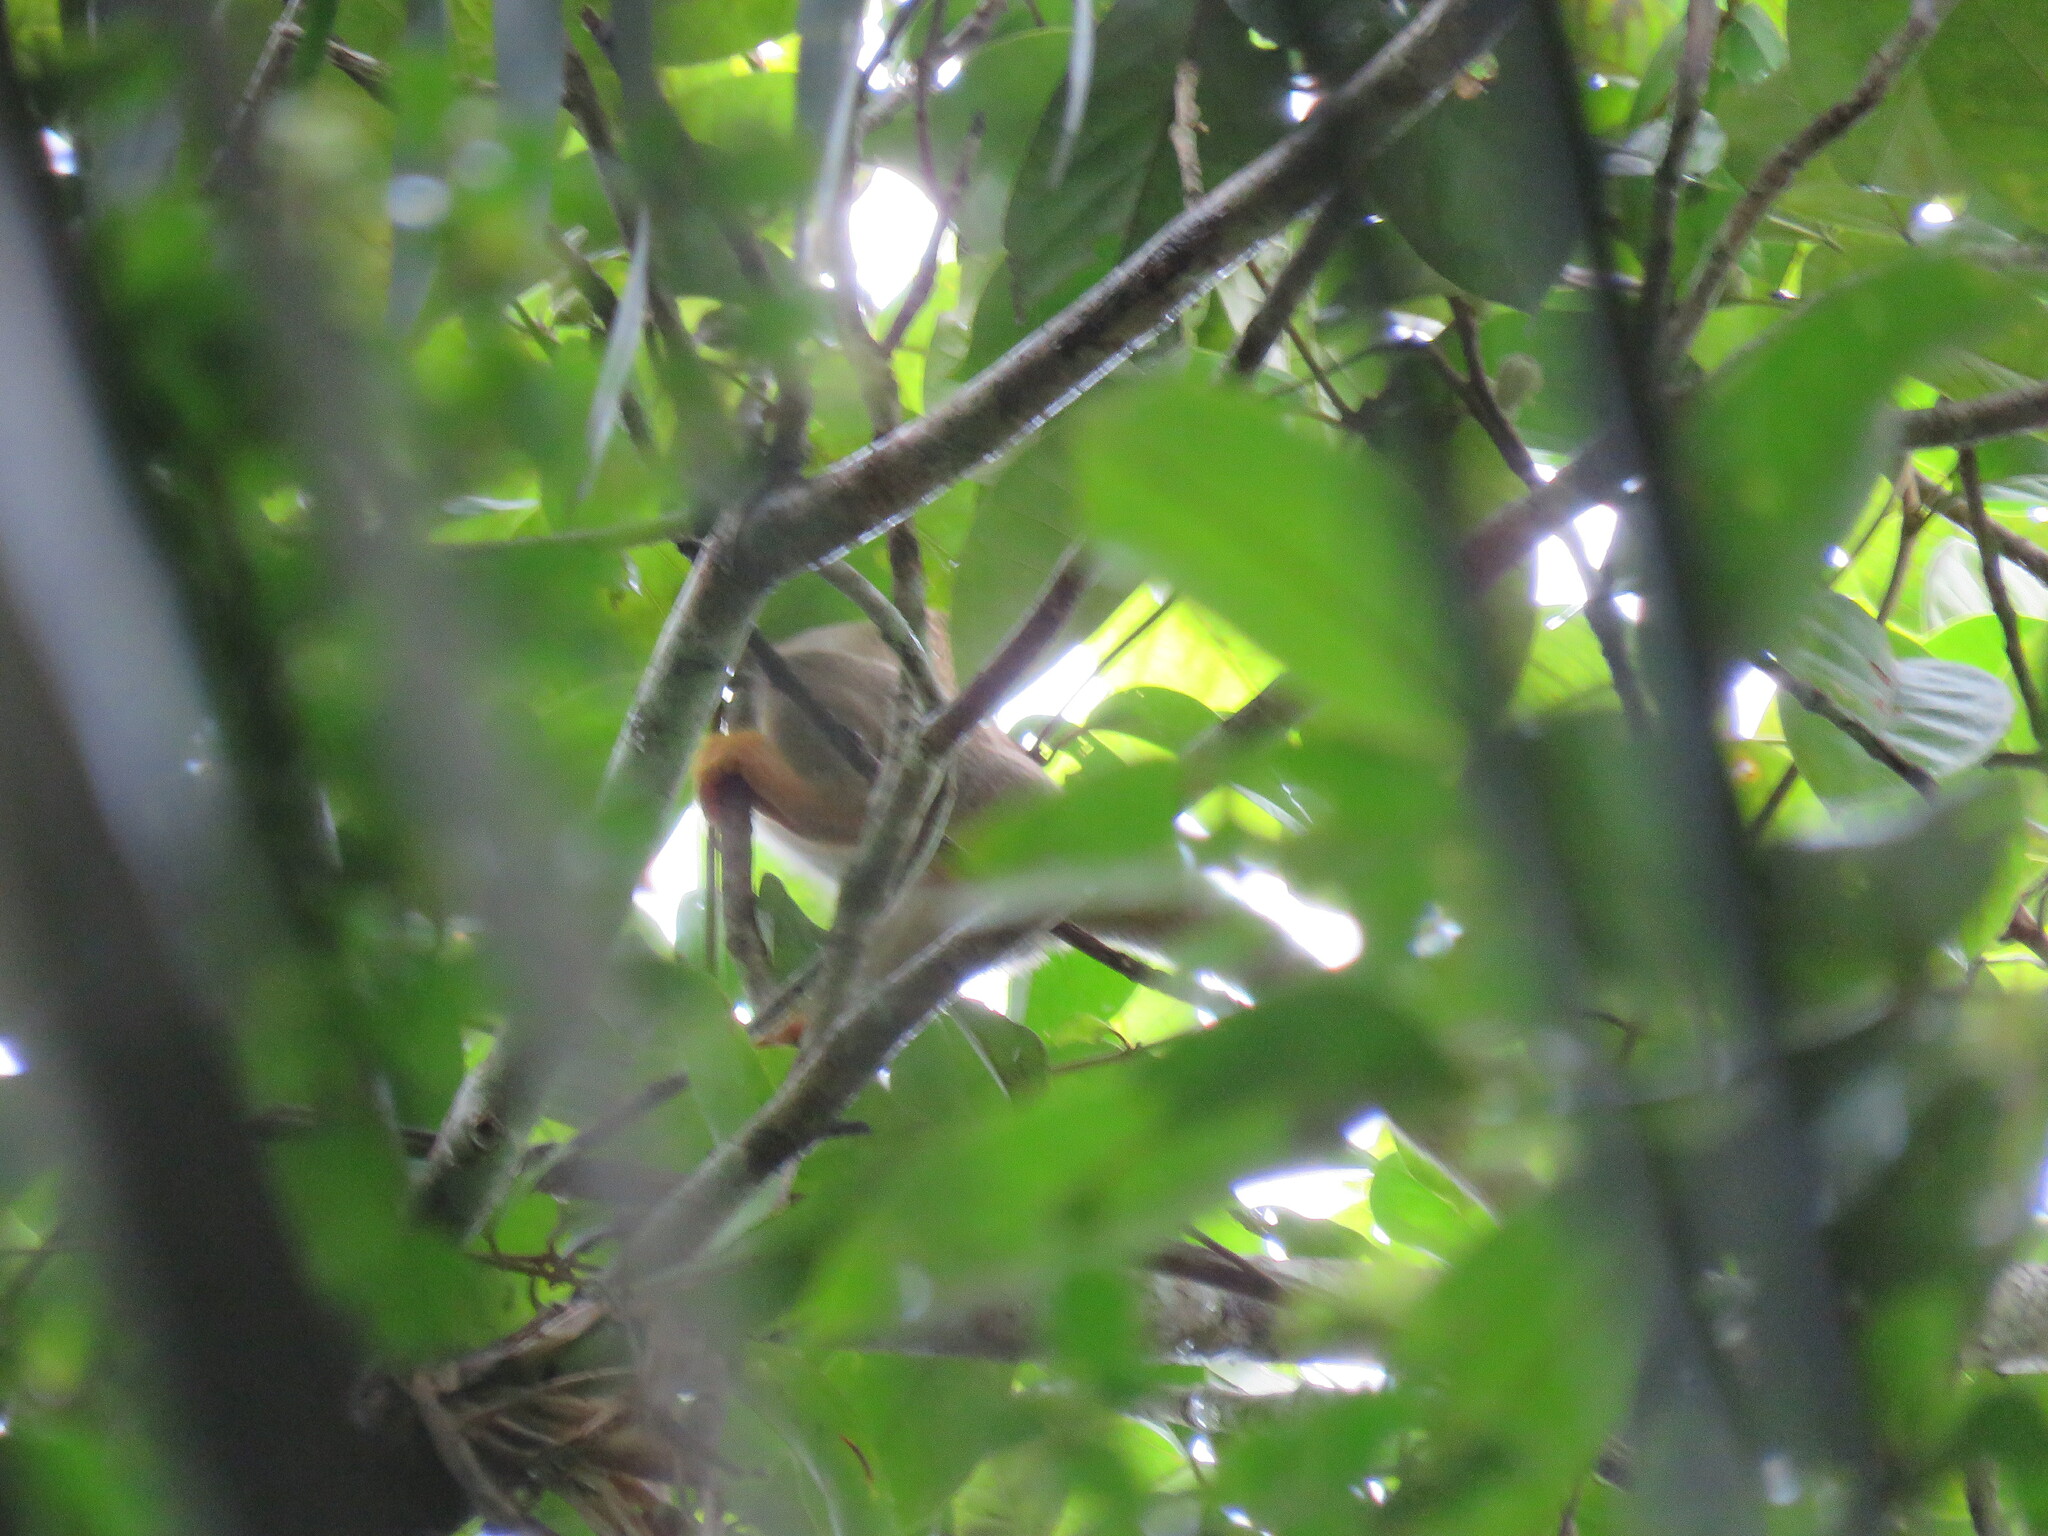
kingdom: Animalia
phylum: Chordata
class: Mammalia
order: Primates
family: Cebidae
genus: Saimiri
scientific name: Saimiri cassiquiarensis
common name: Humboldt’s squirrel monkey
